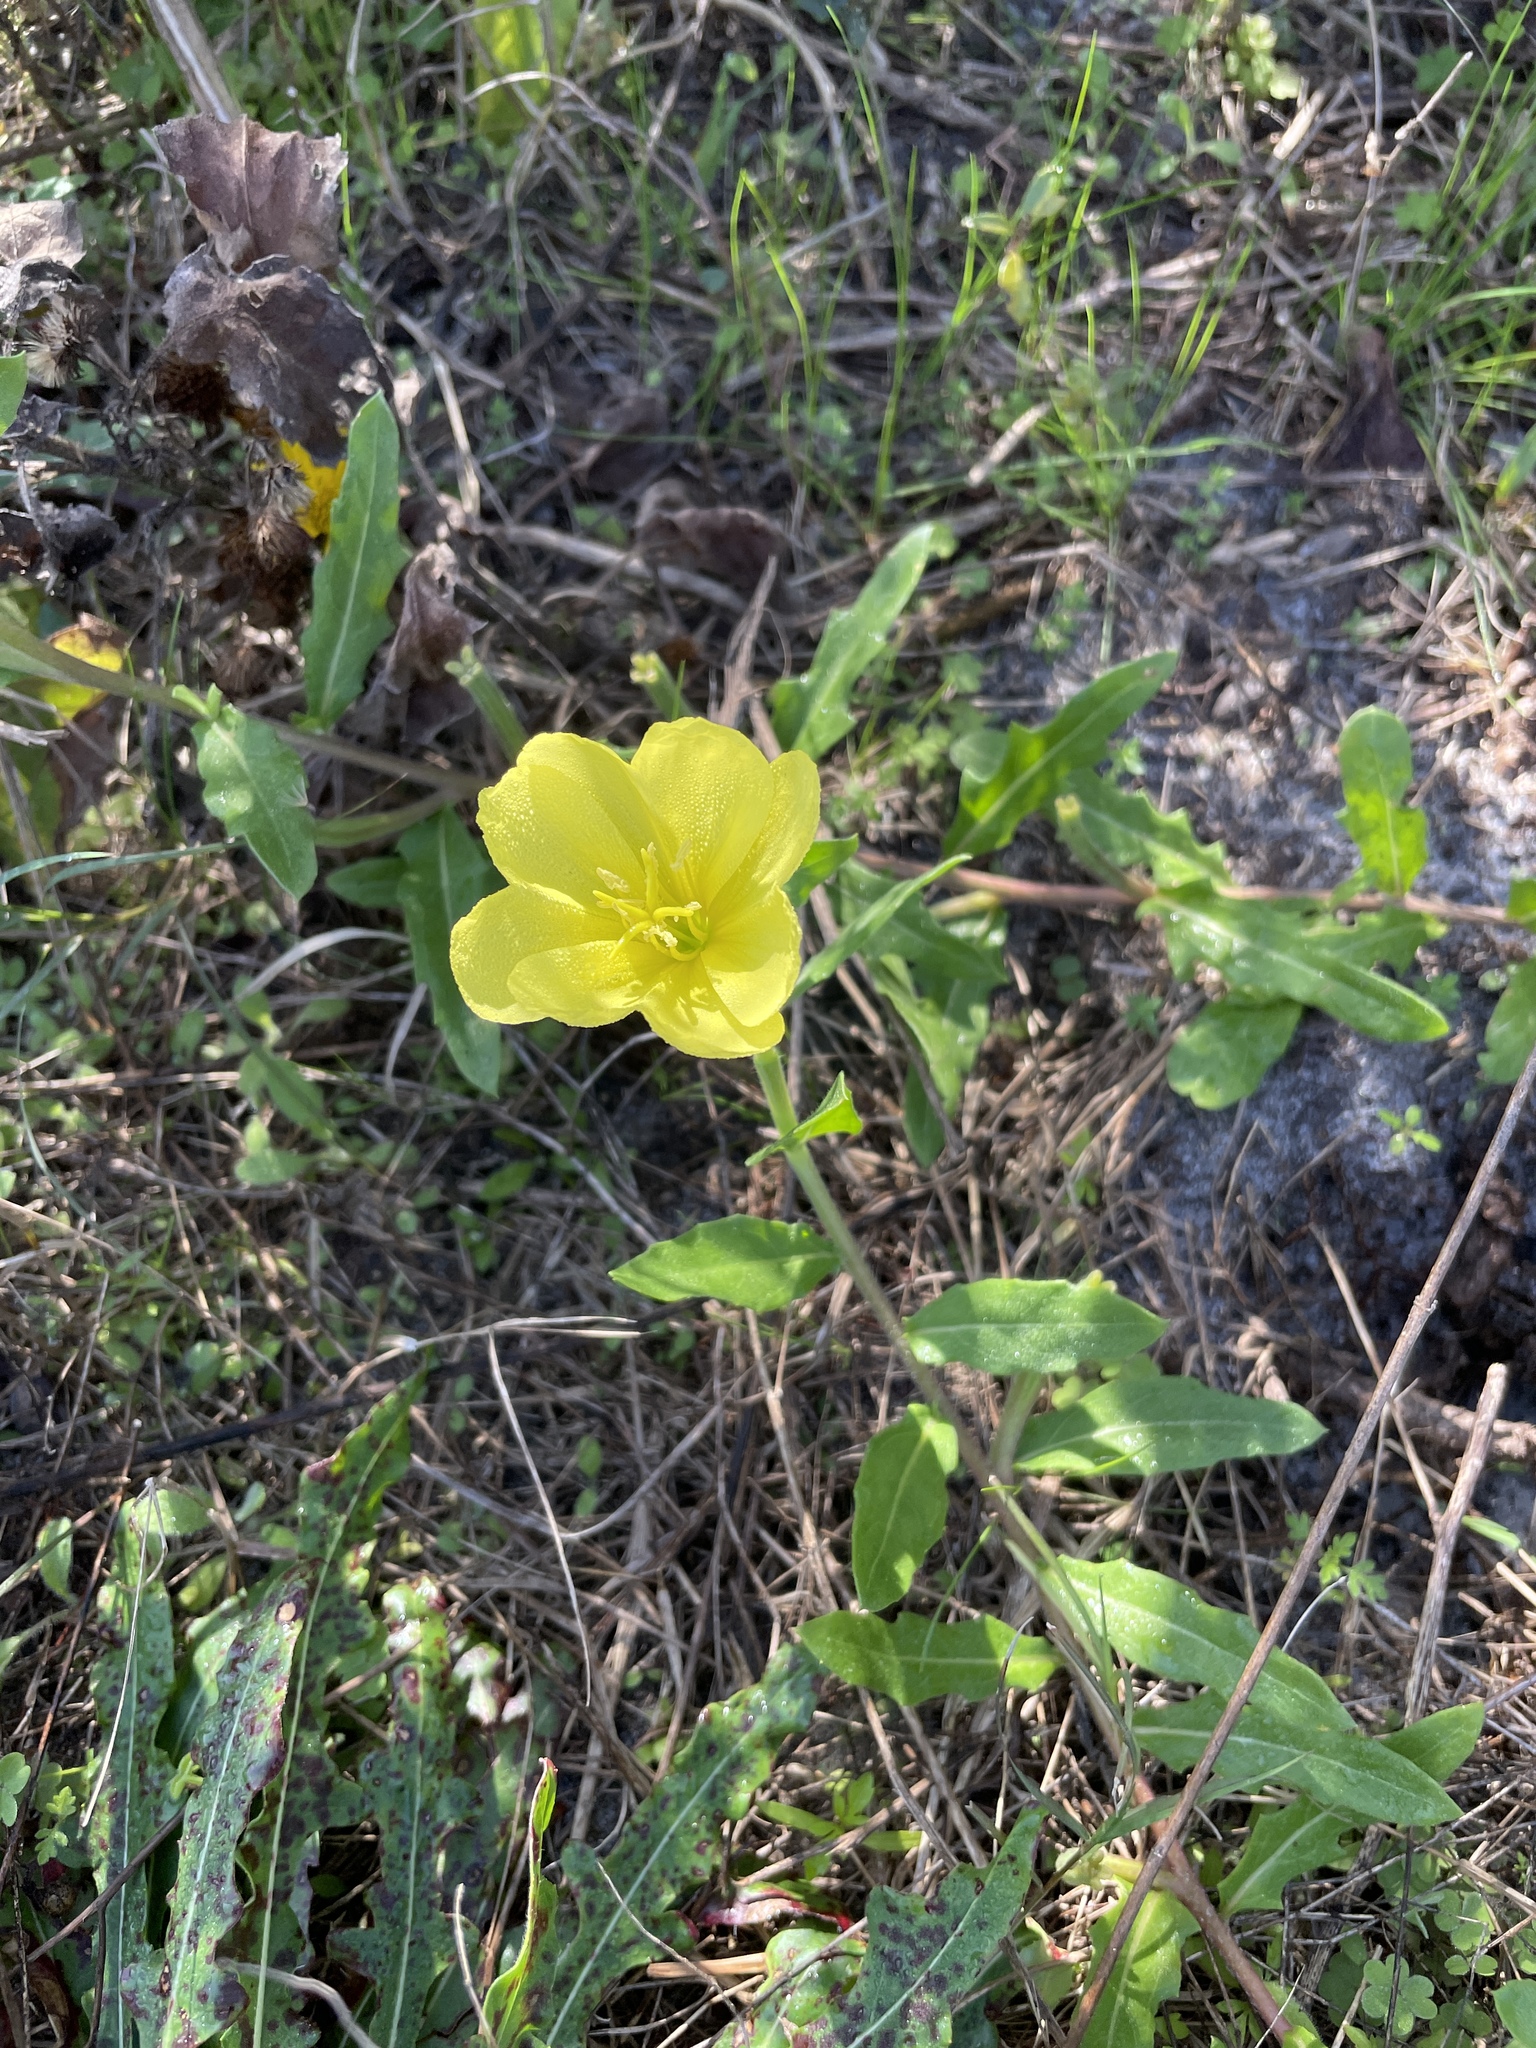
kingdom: Plantae
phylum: Tracheophyta
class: Magnoliopsida
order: Myrtales
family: Onagraceae
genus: Oenothera
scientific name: Oenothera laciniata
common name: Cut-leaved evening-primrose
